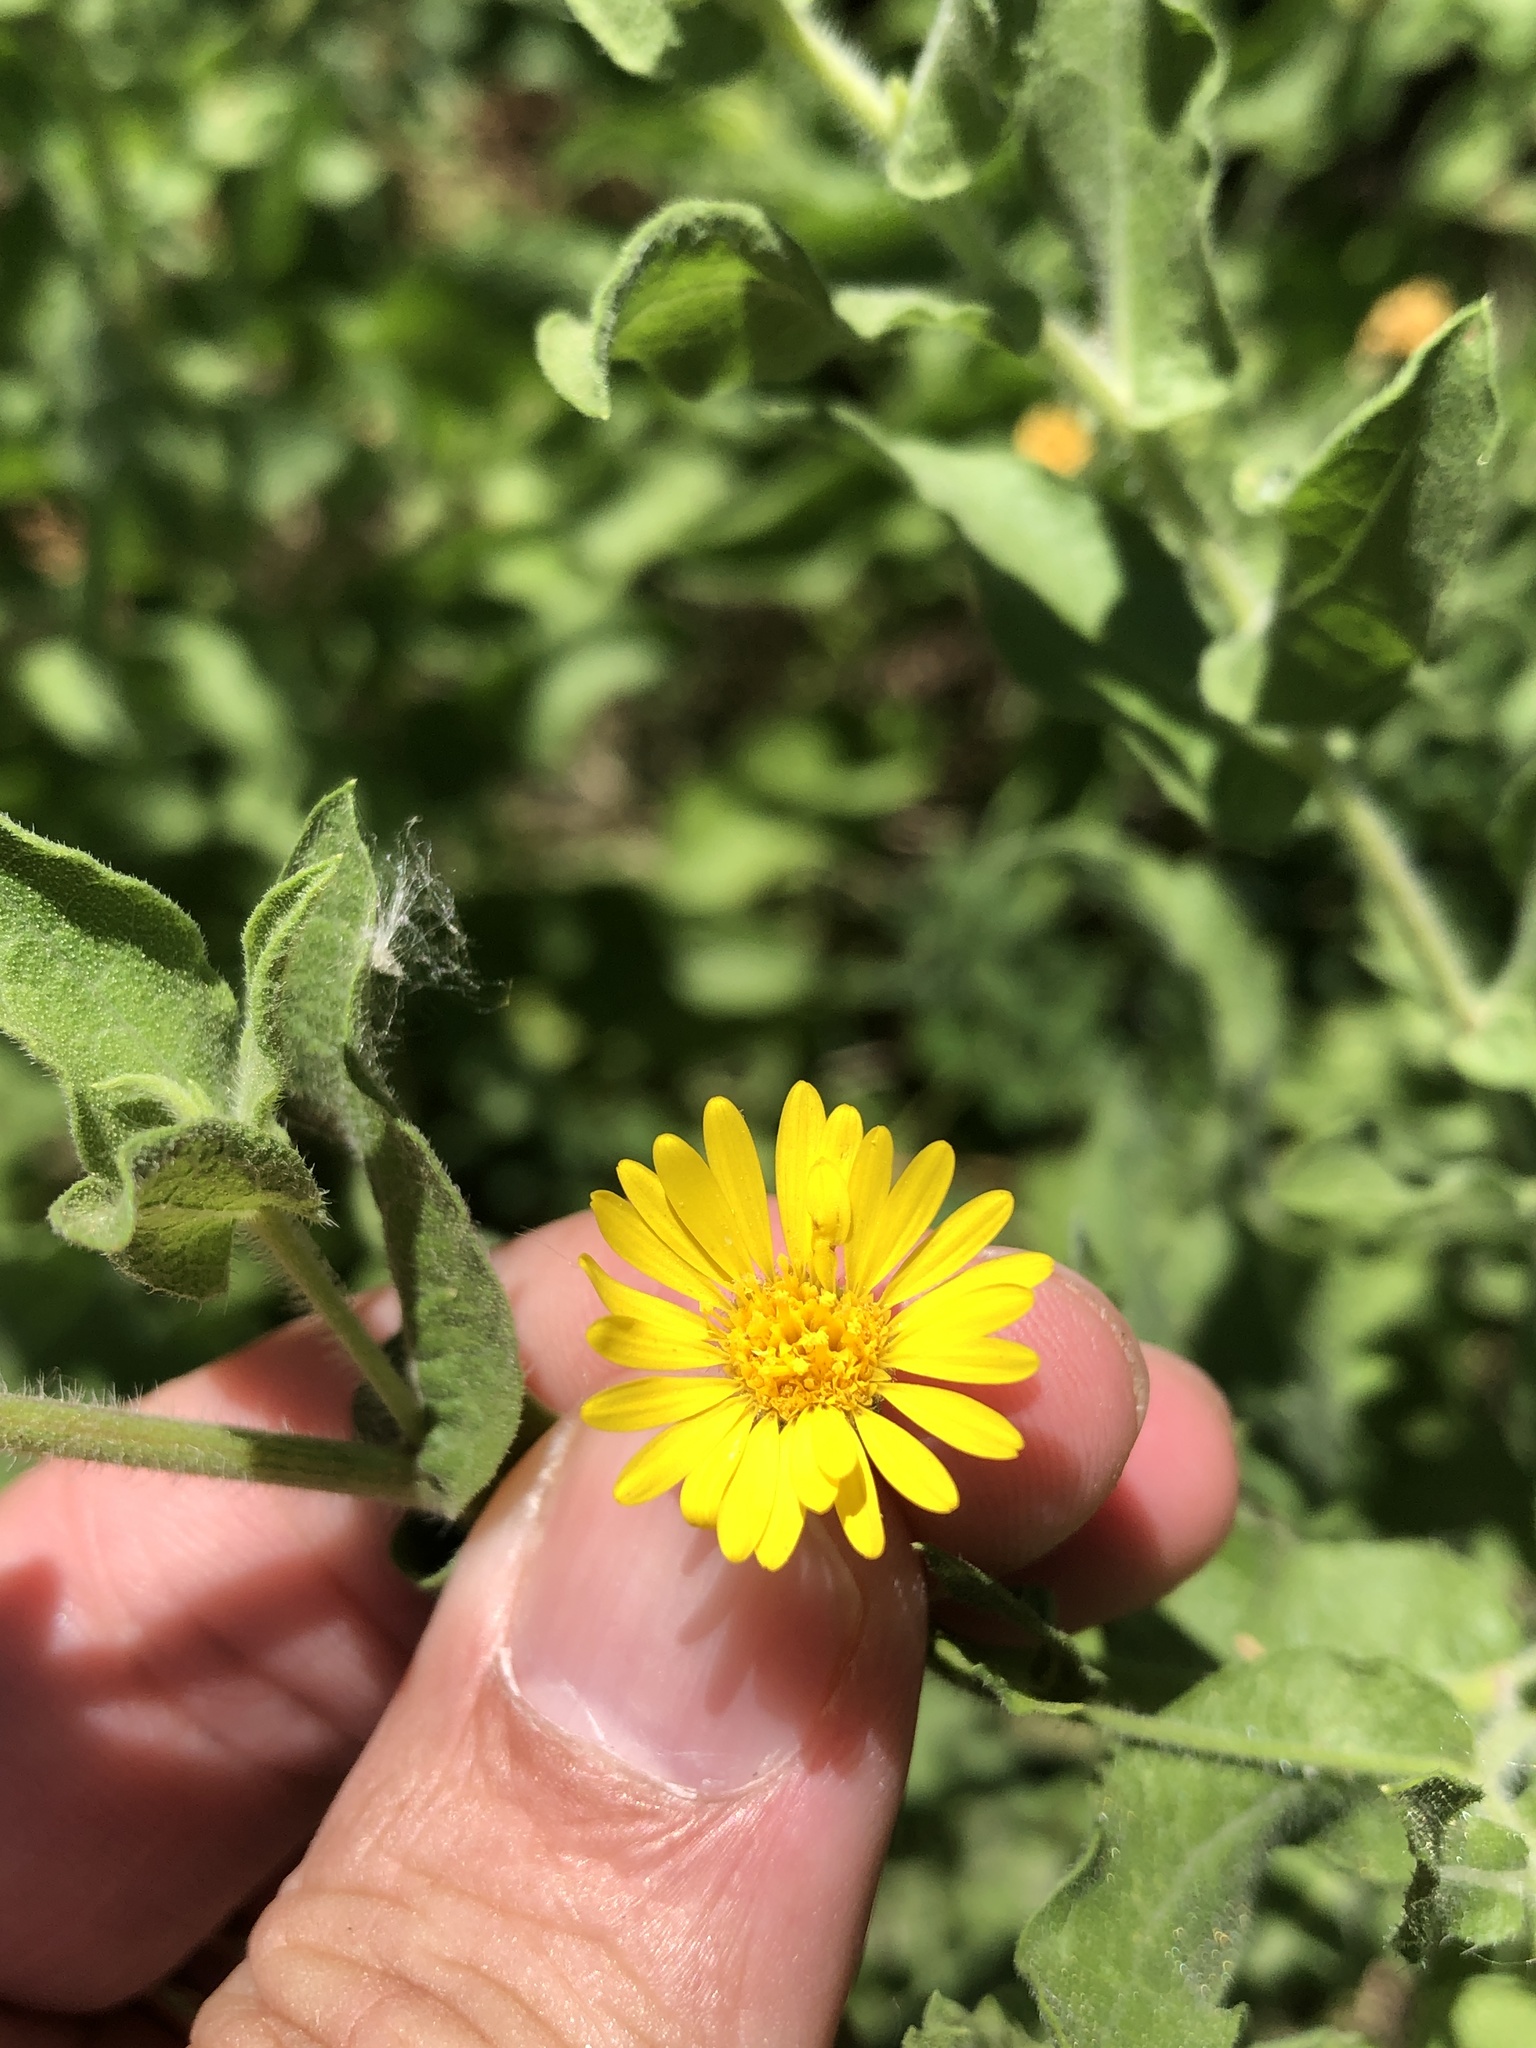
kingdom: Plantae
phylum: Tracheophyta
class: Magnoliopsida
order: Asterales
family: Asteraceae
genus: Heterotheca
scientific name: Heterotheca subaxillaris
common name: Camphorweed
